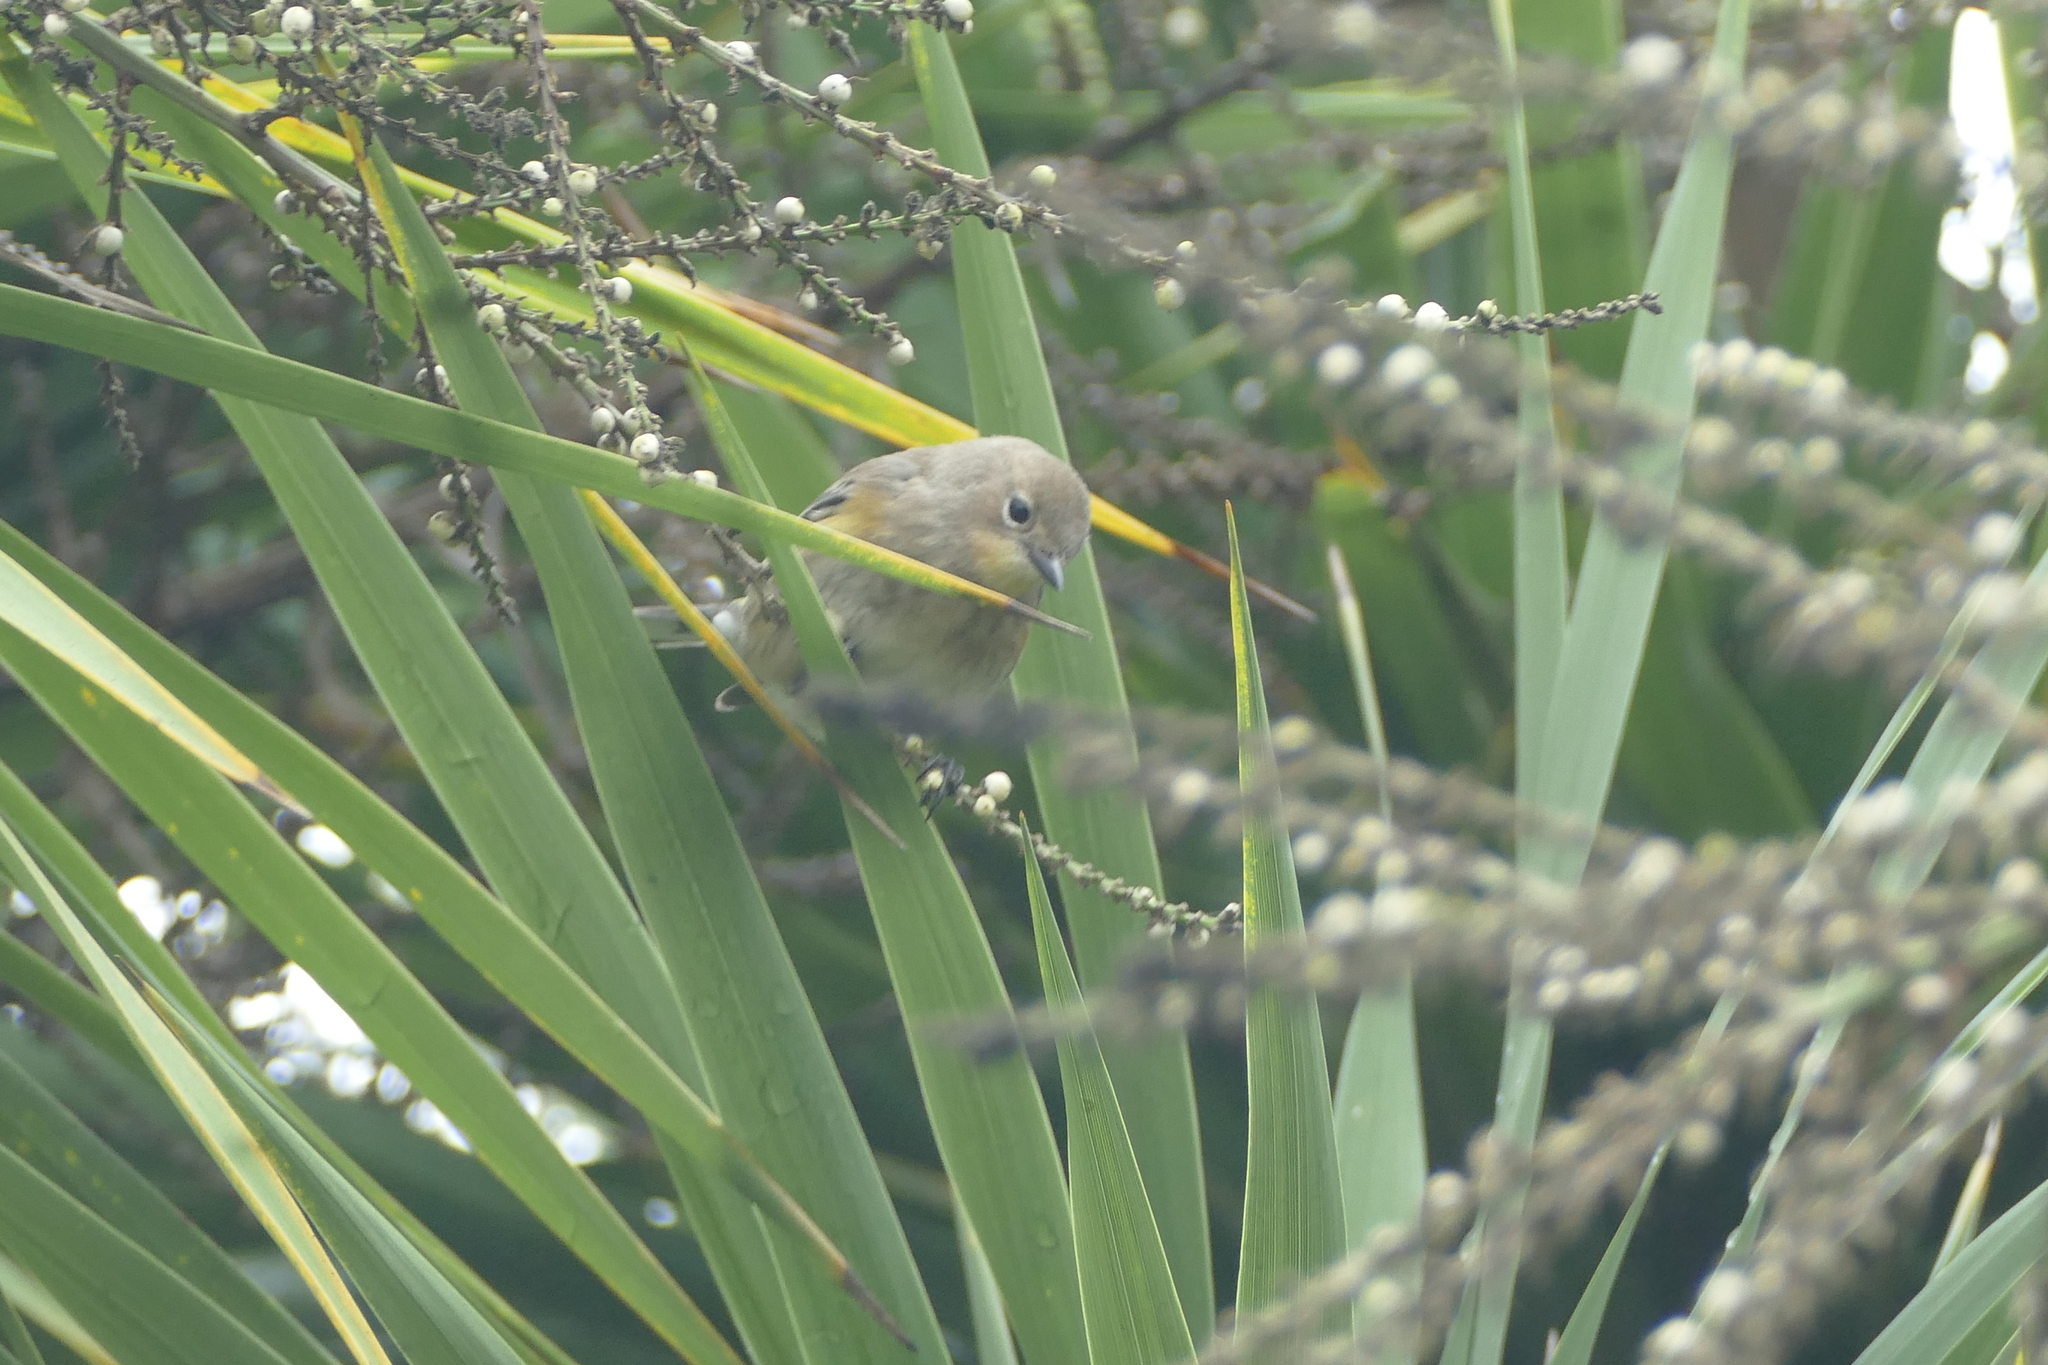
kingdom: Animalia
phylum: Chordata
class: Aves
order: Passeriformes
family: Parulidae
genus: Setophaga
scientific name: Setophaga coronata
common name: Myrtle warbler
